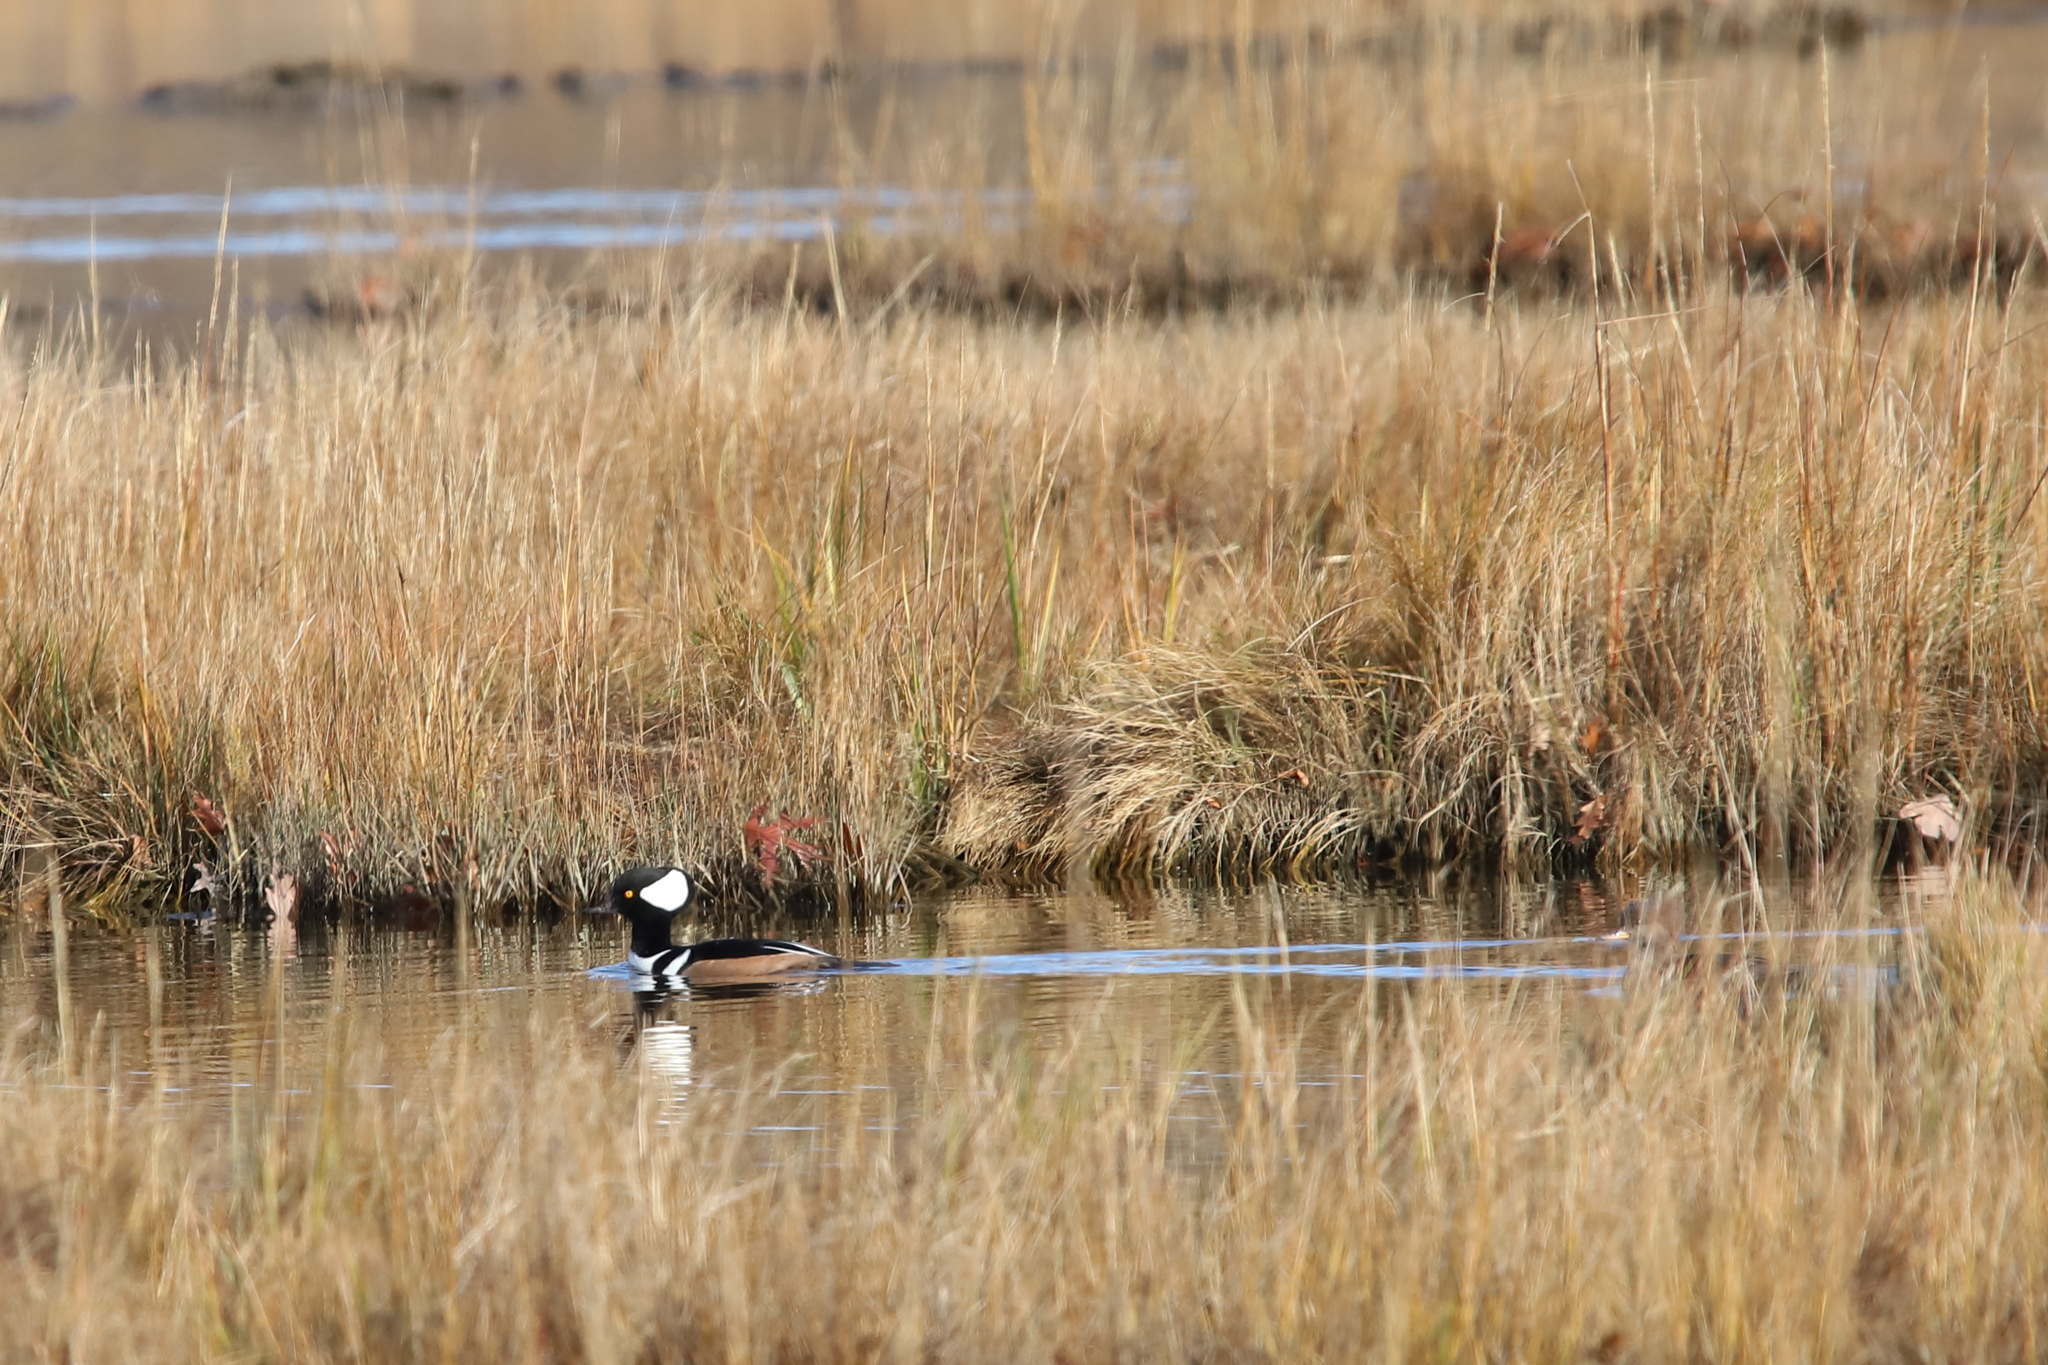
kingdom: Animalia
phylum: Chordata
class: Aves
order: Anseriformes
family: Anatidae
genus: Lophodytes
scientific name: Lophodytes cucullatus
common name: Hooded merganser
